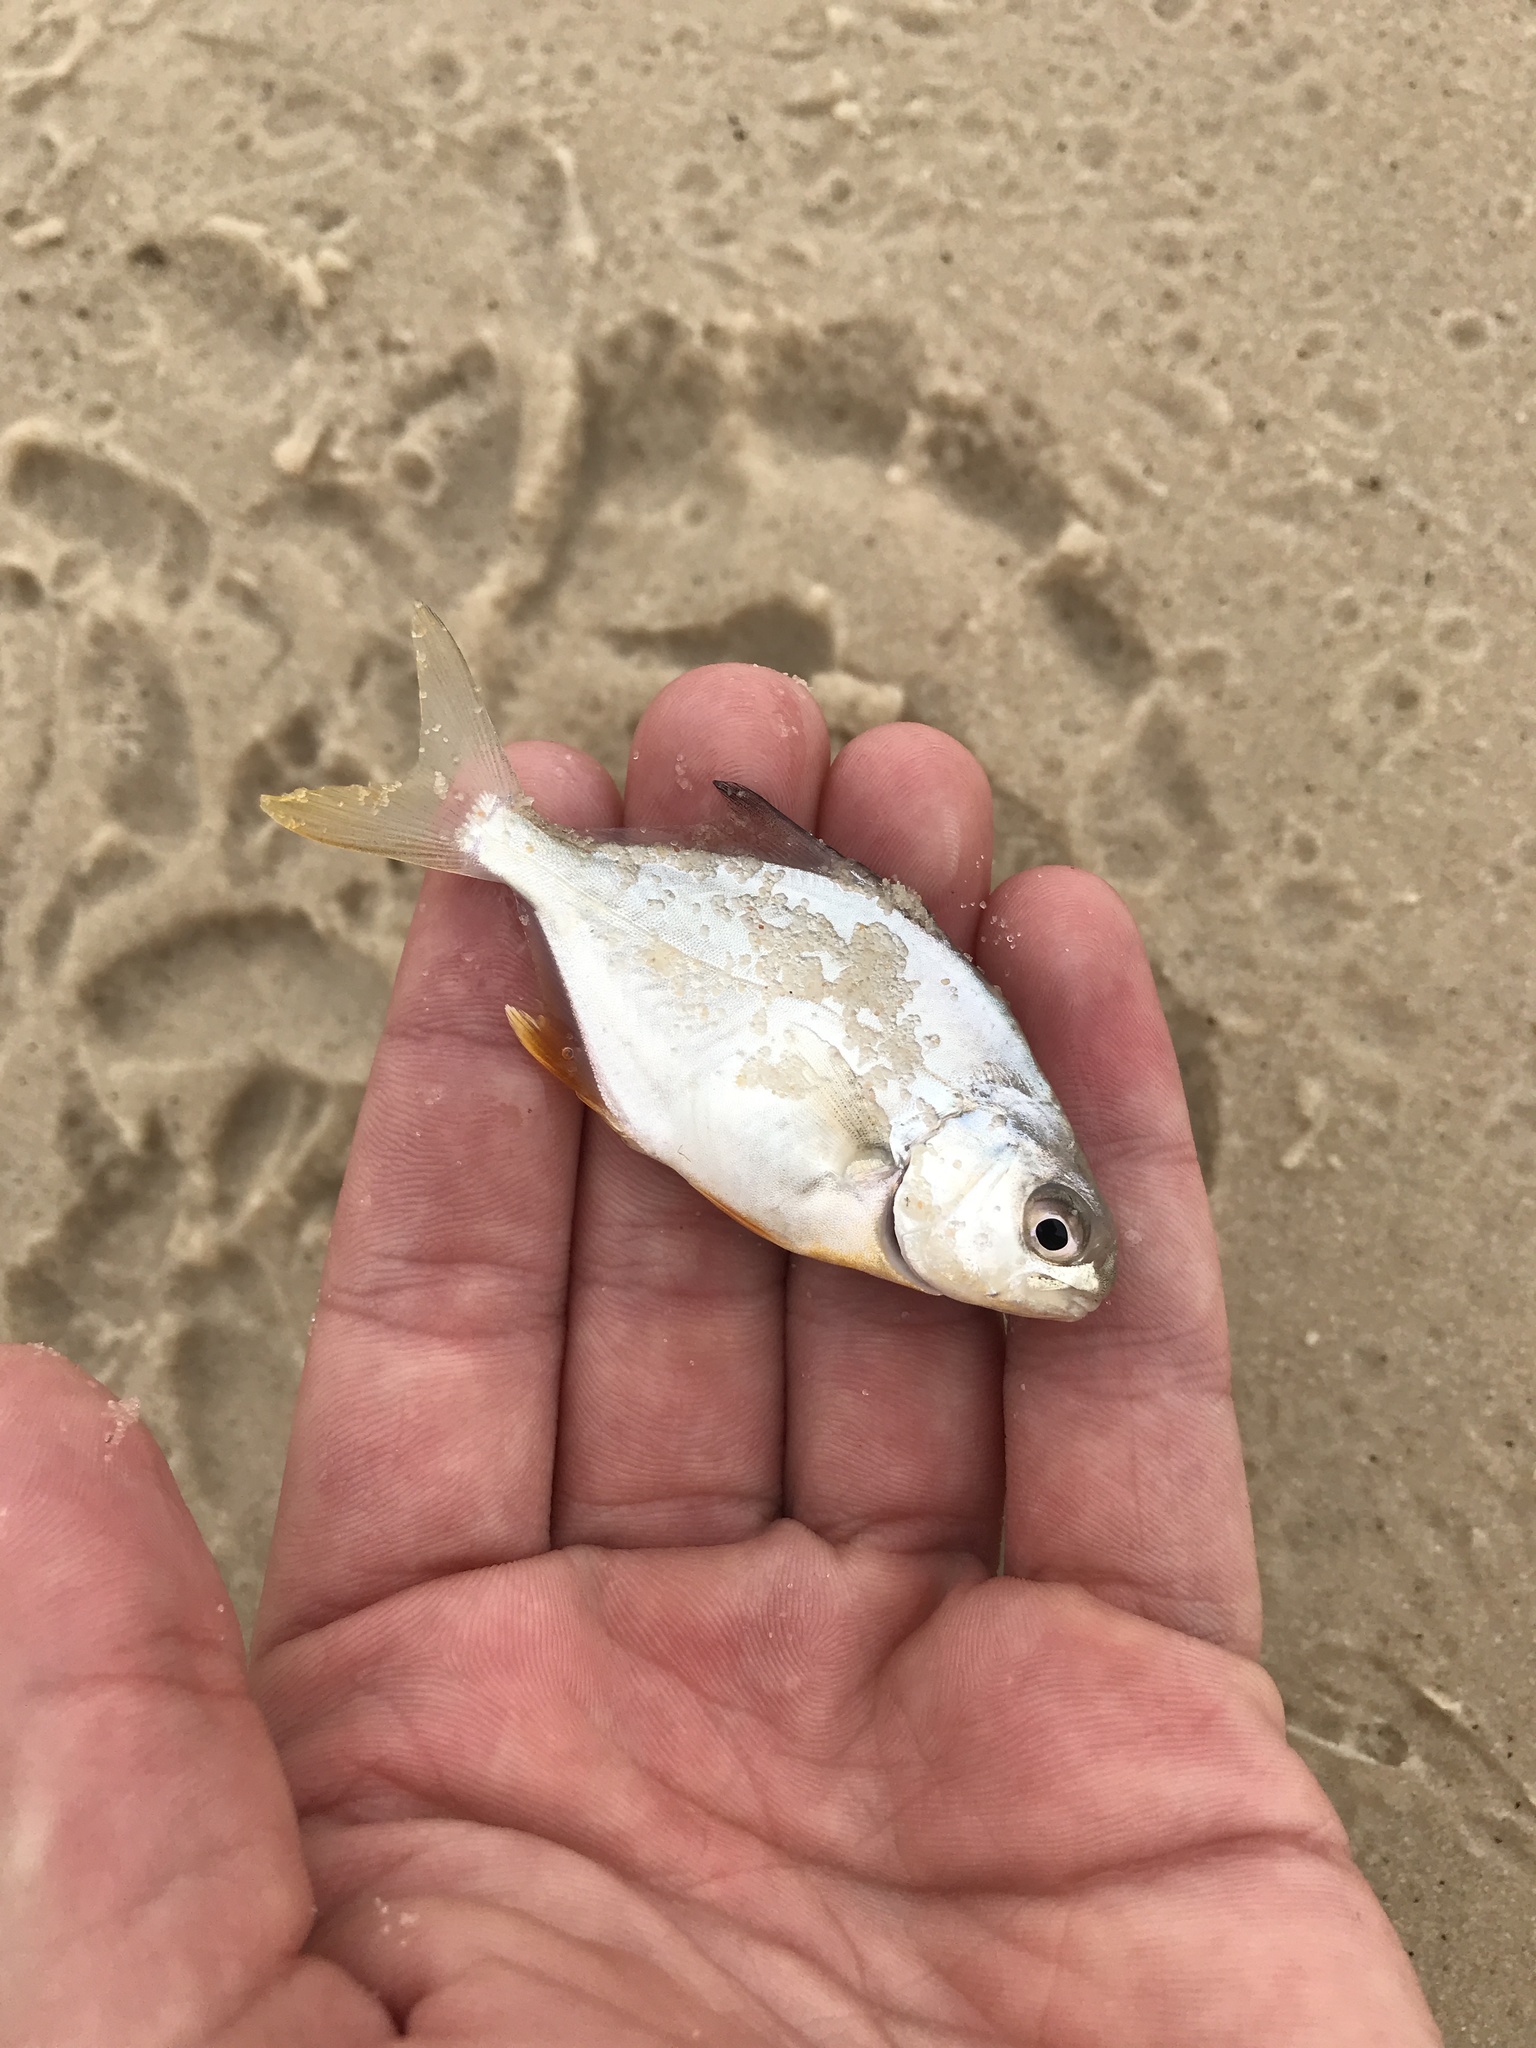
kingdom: Animalia
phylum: Chordata
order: Perciformes
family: Carangidae
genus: Trachinotus
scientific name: Trachinotus carolinus
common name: Florida pompano
